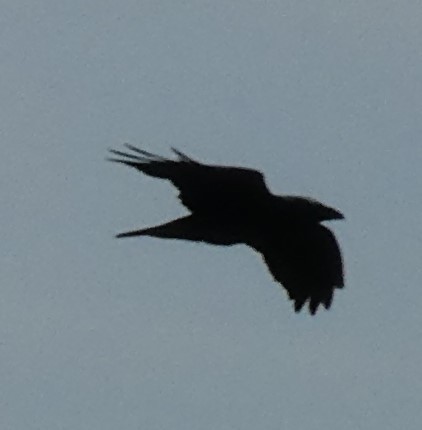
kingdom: Animalia
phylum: Chordata
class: Aves
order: Passeriformes
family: Corvidae
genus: Corvus
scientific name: Corvus corax
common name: Common raven
